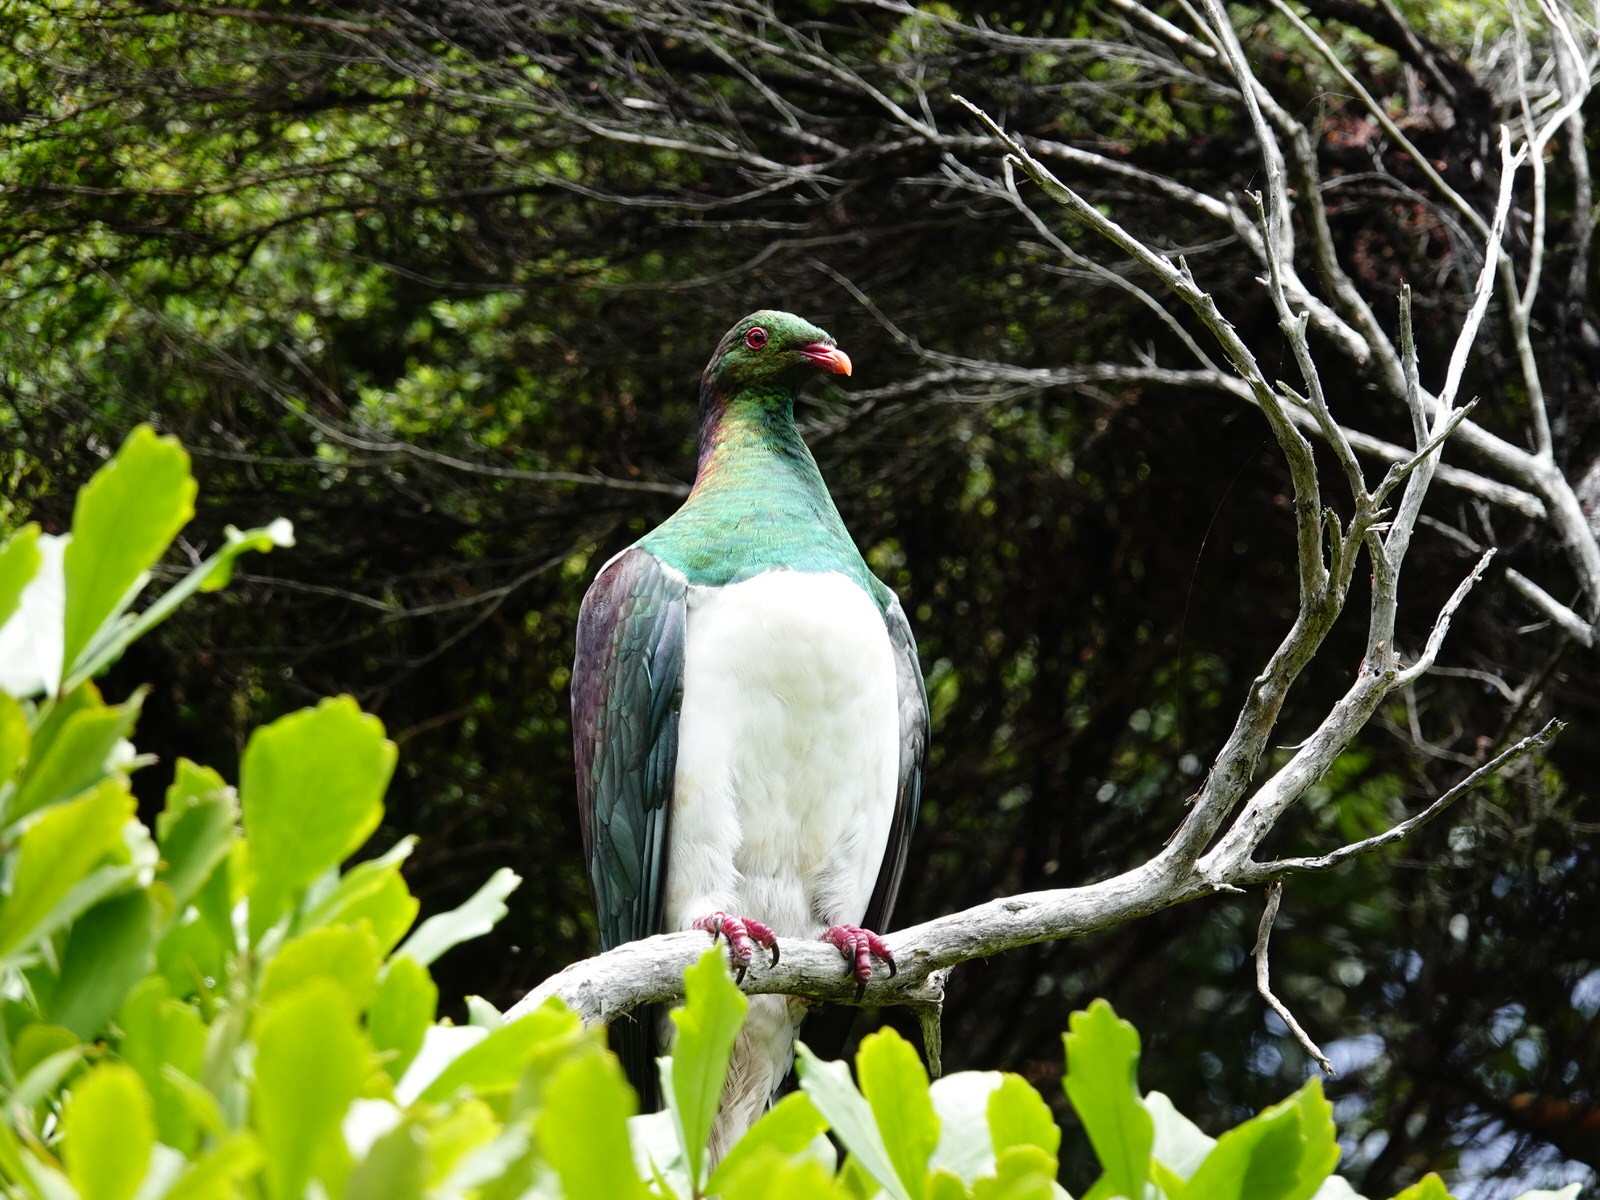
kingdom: Animalia
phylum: Chordata
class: Aves
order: Columbiformes
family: Columbidae
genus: Hemiphaga
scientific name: Hemiphaga novaeseelandiae
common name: New zealand pigeon
